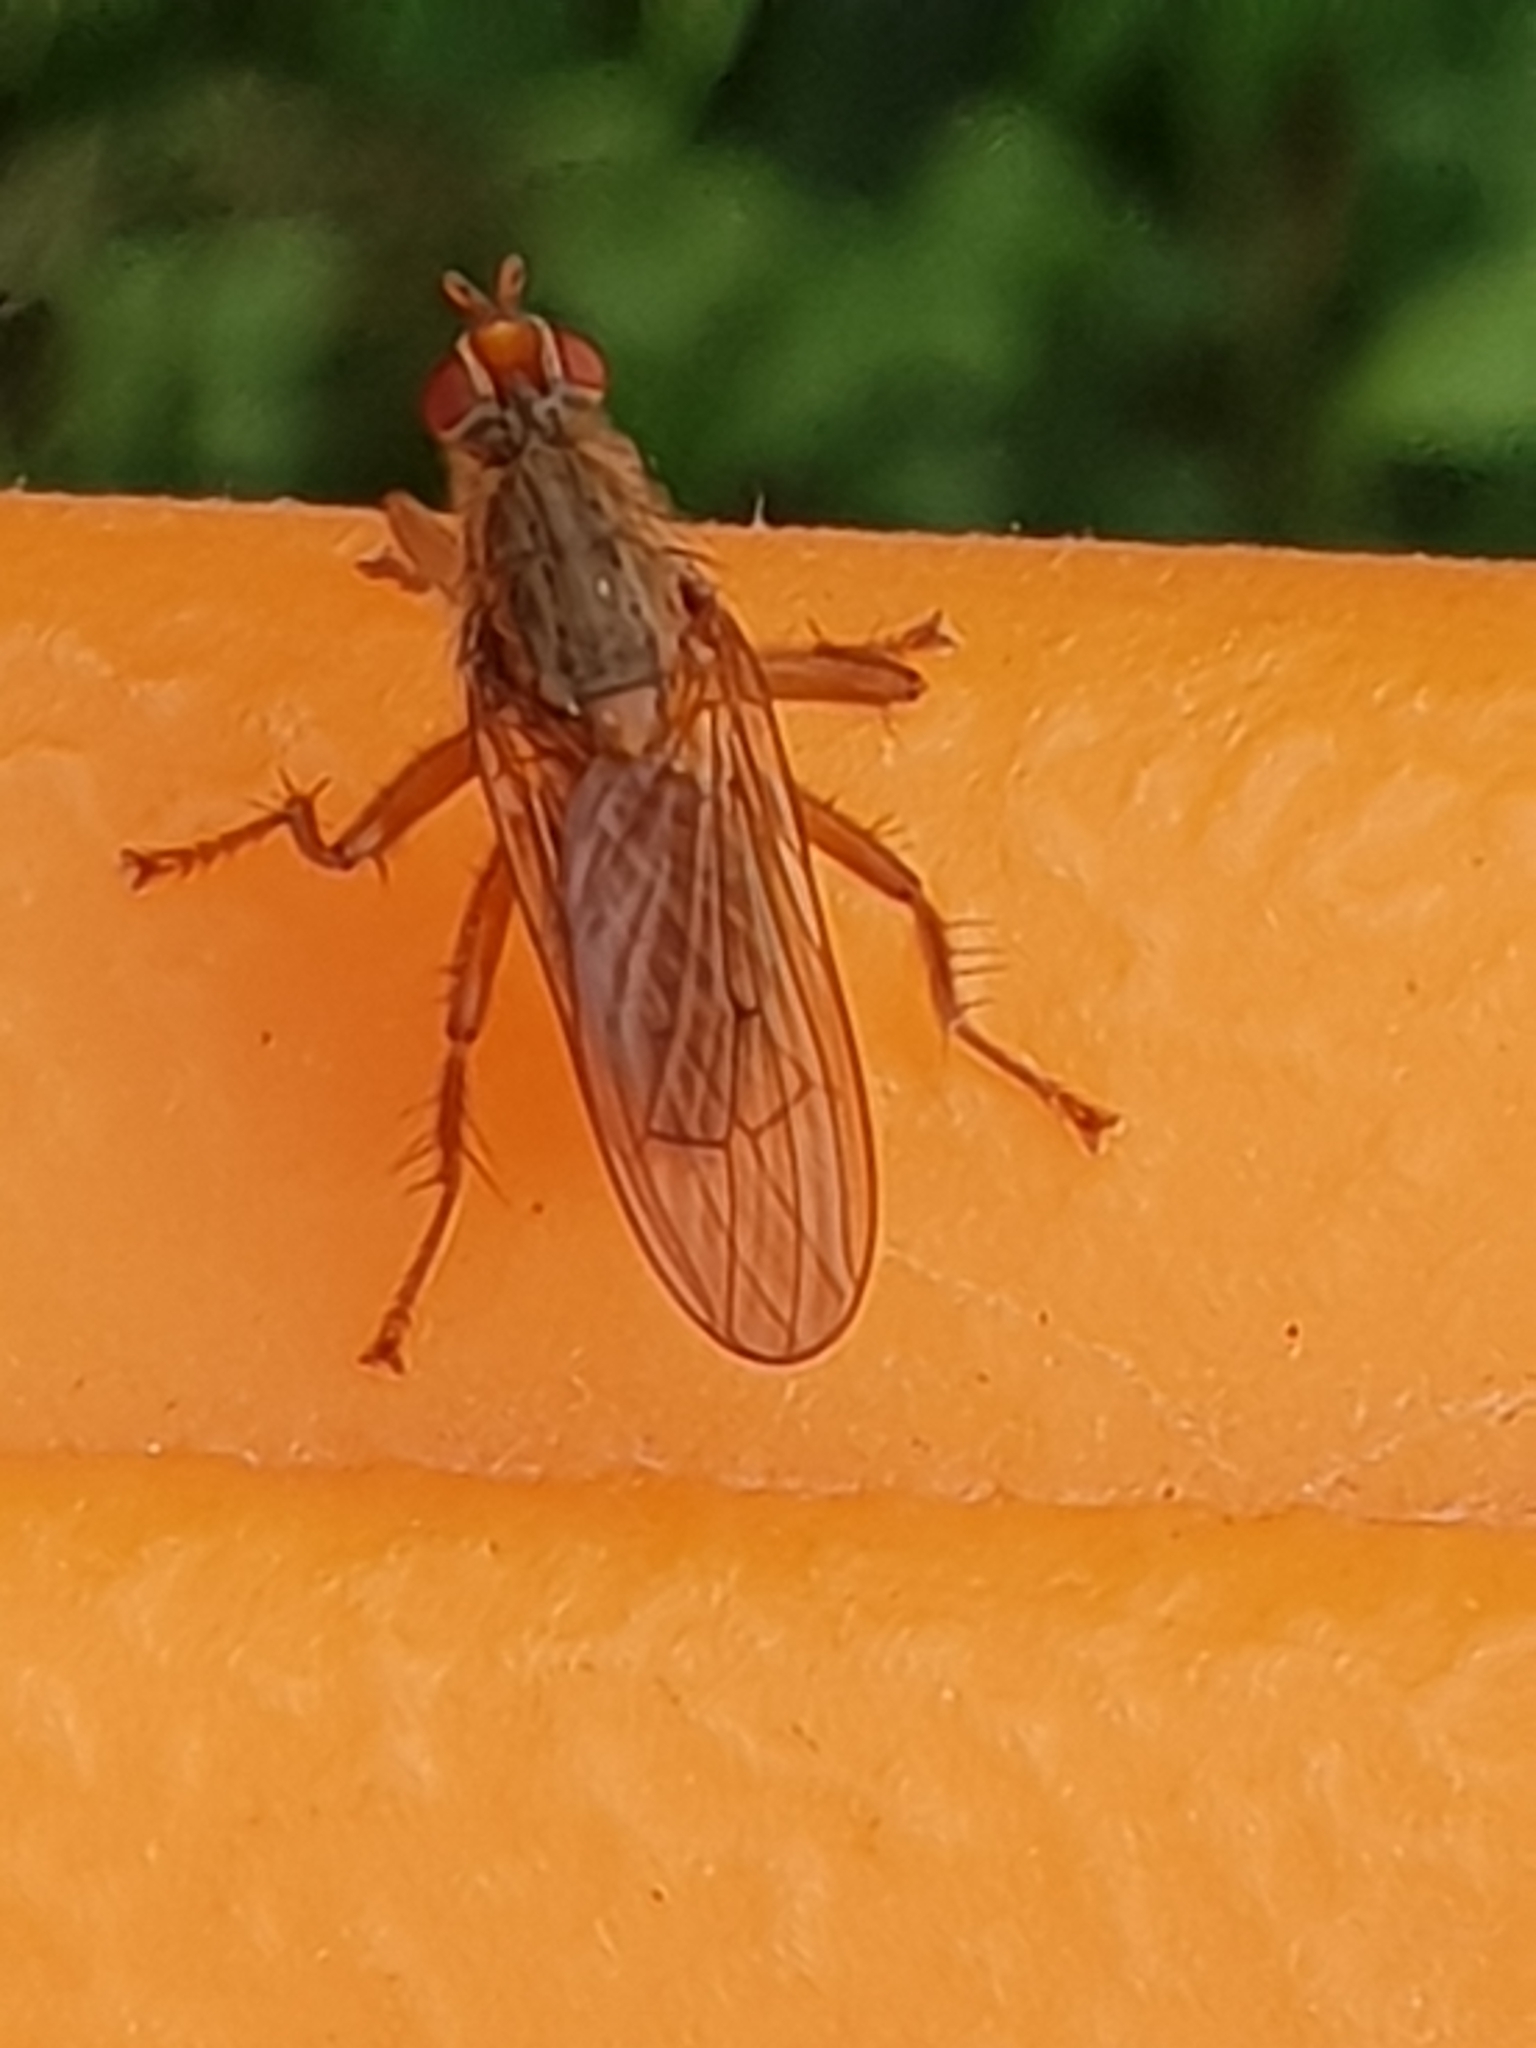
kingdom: Animalia
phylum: Arthropoda
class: Insecta
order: Diptera
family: Scathophagidae
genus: Scathophaga
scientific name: Scathophaga stercoraria
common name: Yellow dung fly
